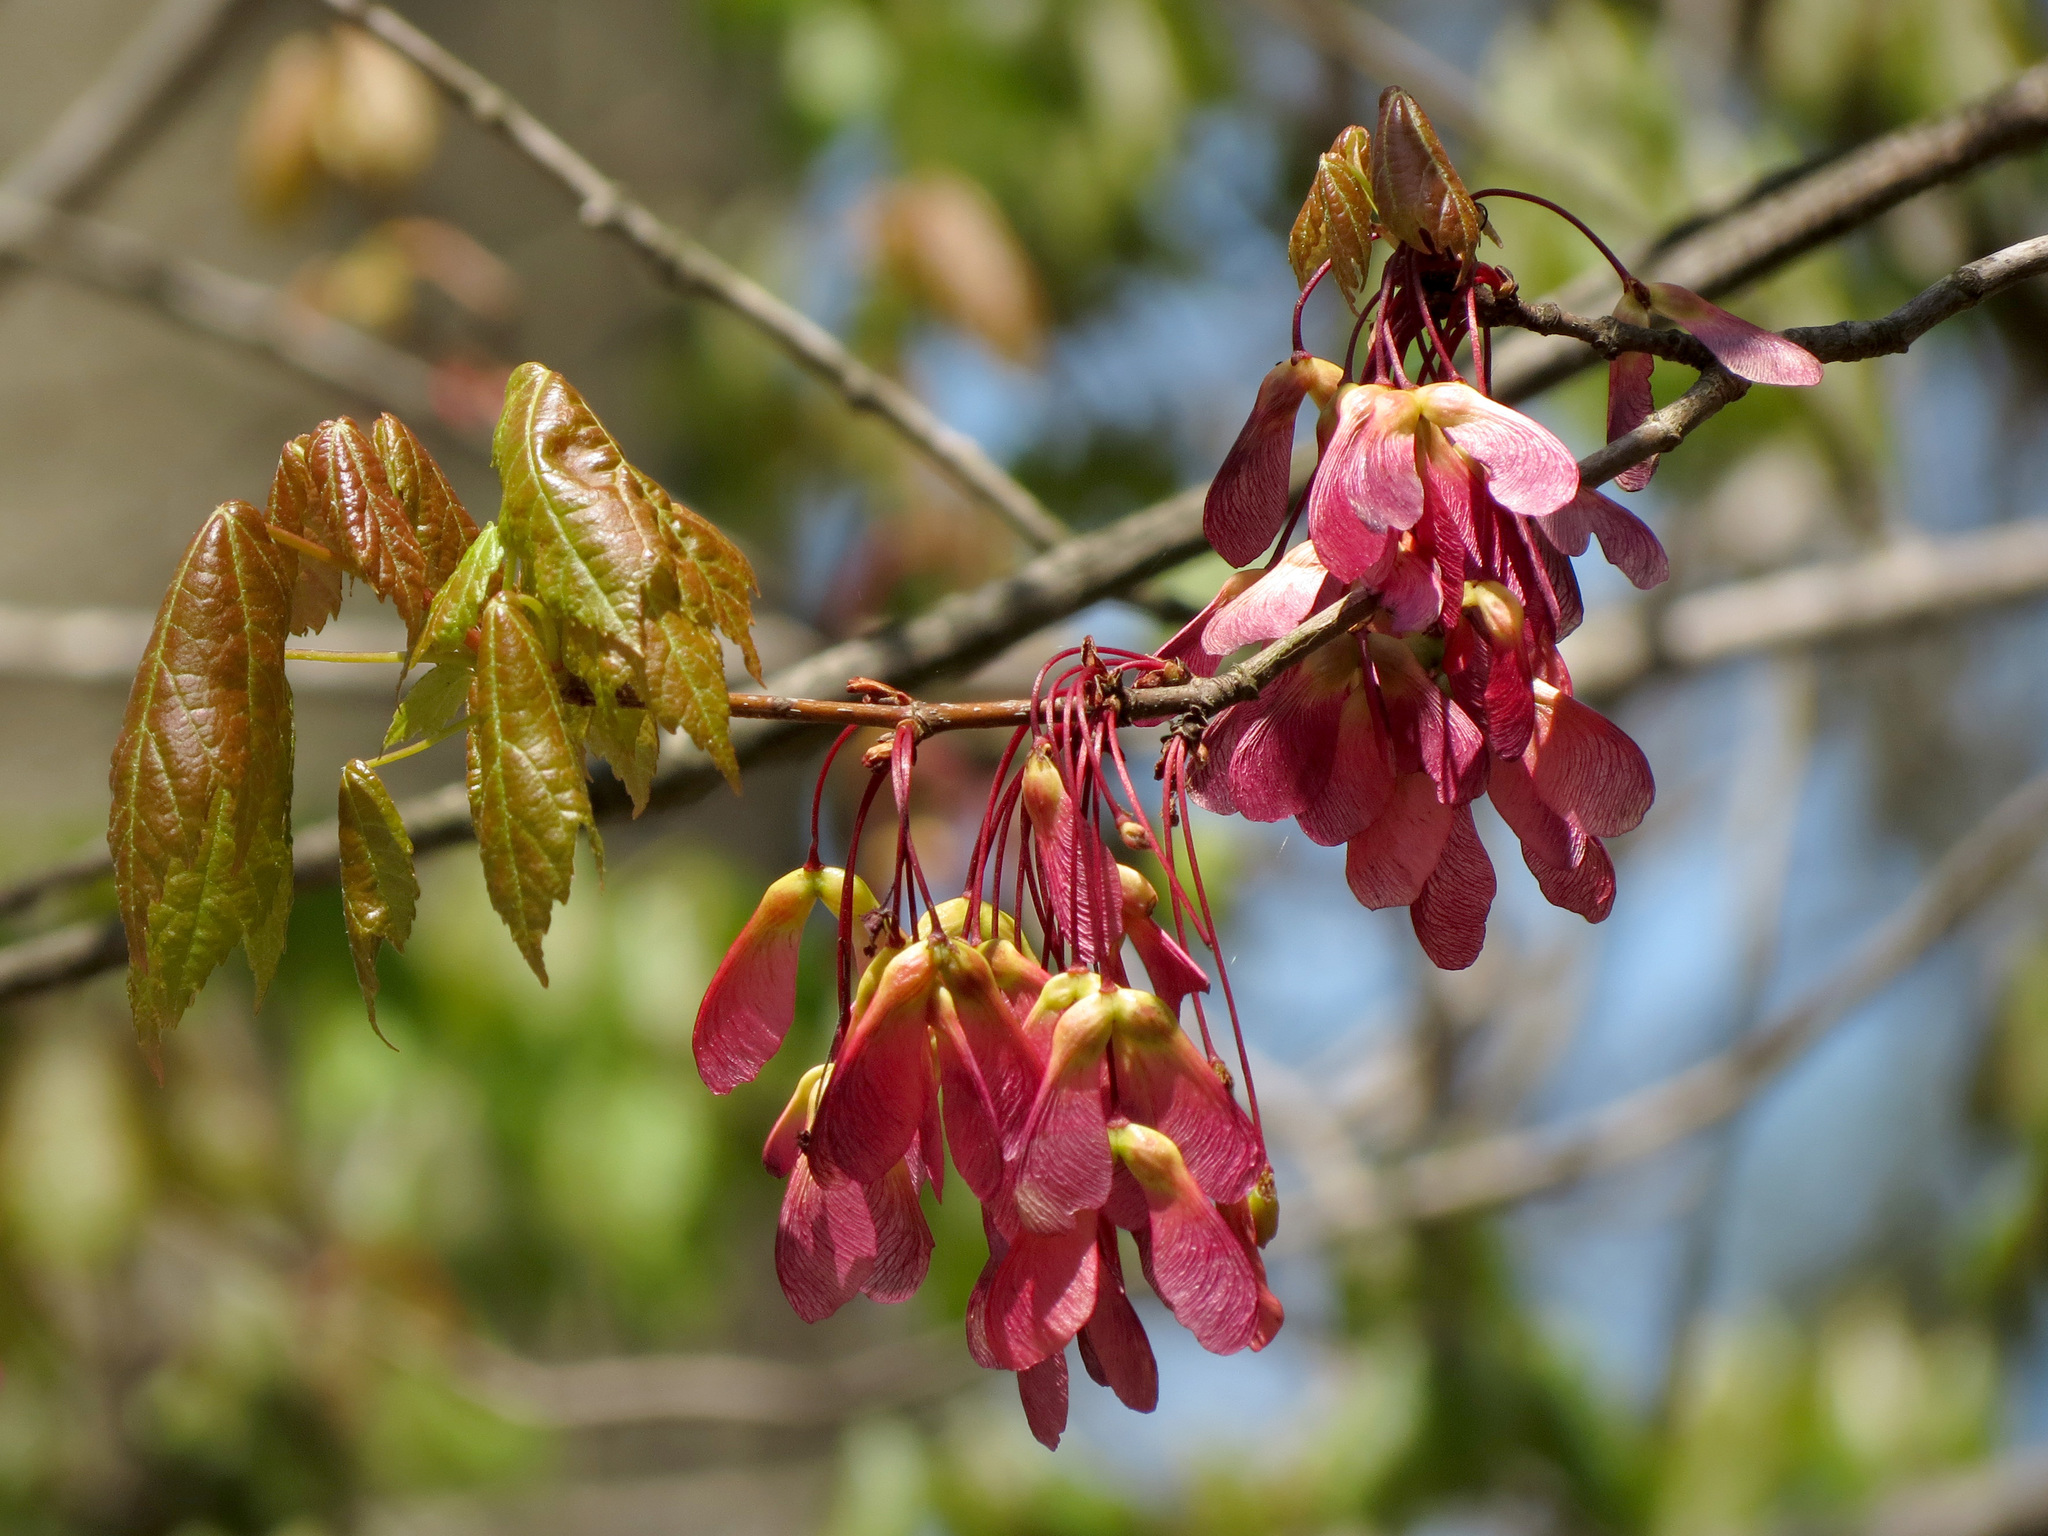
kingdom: Plantae
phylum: Tracheophyta
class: Magnoliopsida
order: Sapindales
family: Sapindaceae
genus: Acer
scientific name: Acer rubrum
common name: Red maple
